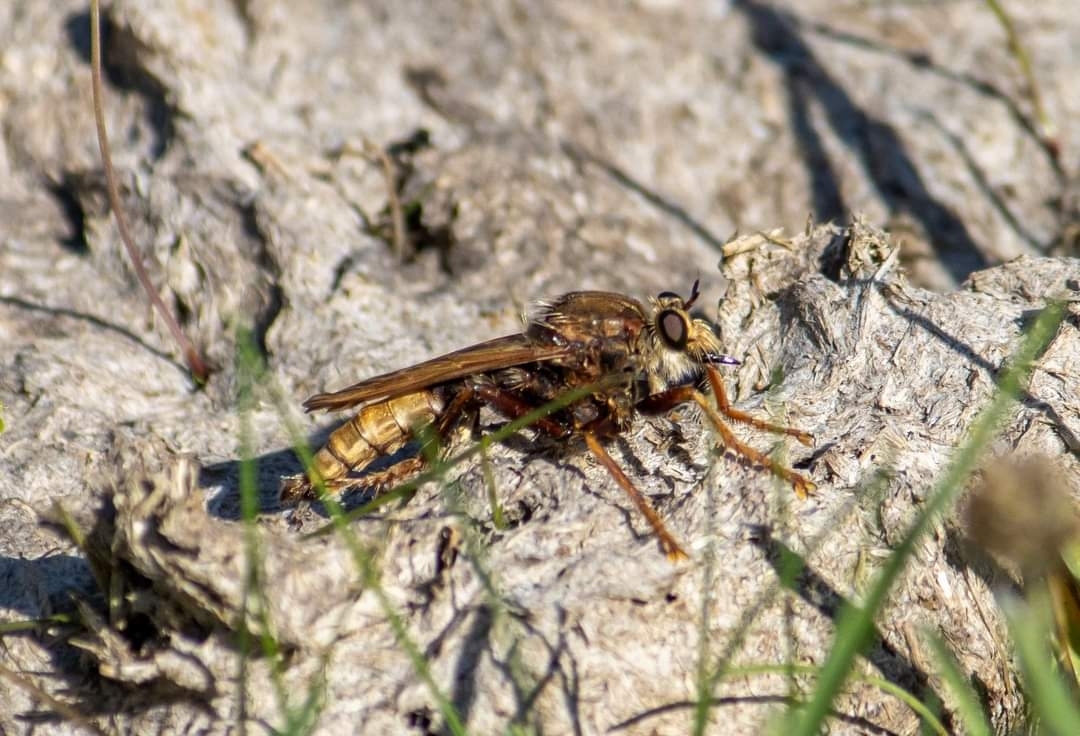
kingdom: Animalia
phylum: Arthropoda
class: Insecta
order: Diptera
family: Asilidae
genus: Asilus
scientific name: Asilus crabroniformis
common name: Hornet robberfly
